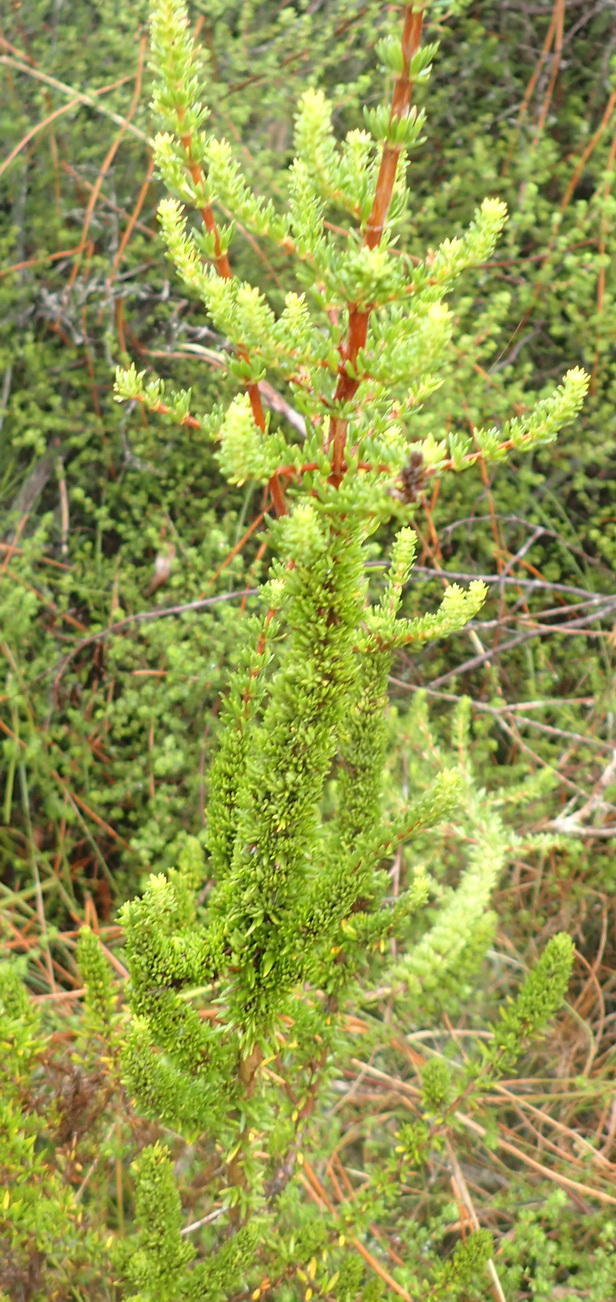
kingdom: Plantae
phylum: Tracheophyta
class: Magnoliopsida
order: Gentianales
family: Rubiaceae
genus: Anthospermum
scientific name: Anthospermum aethiopicum
